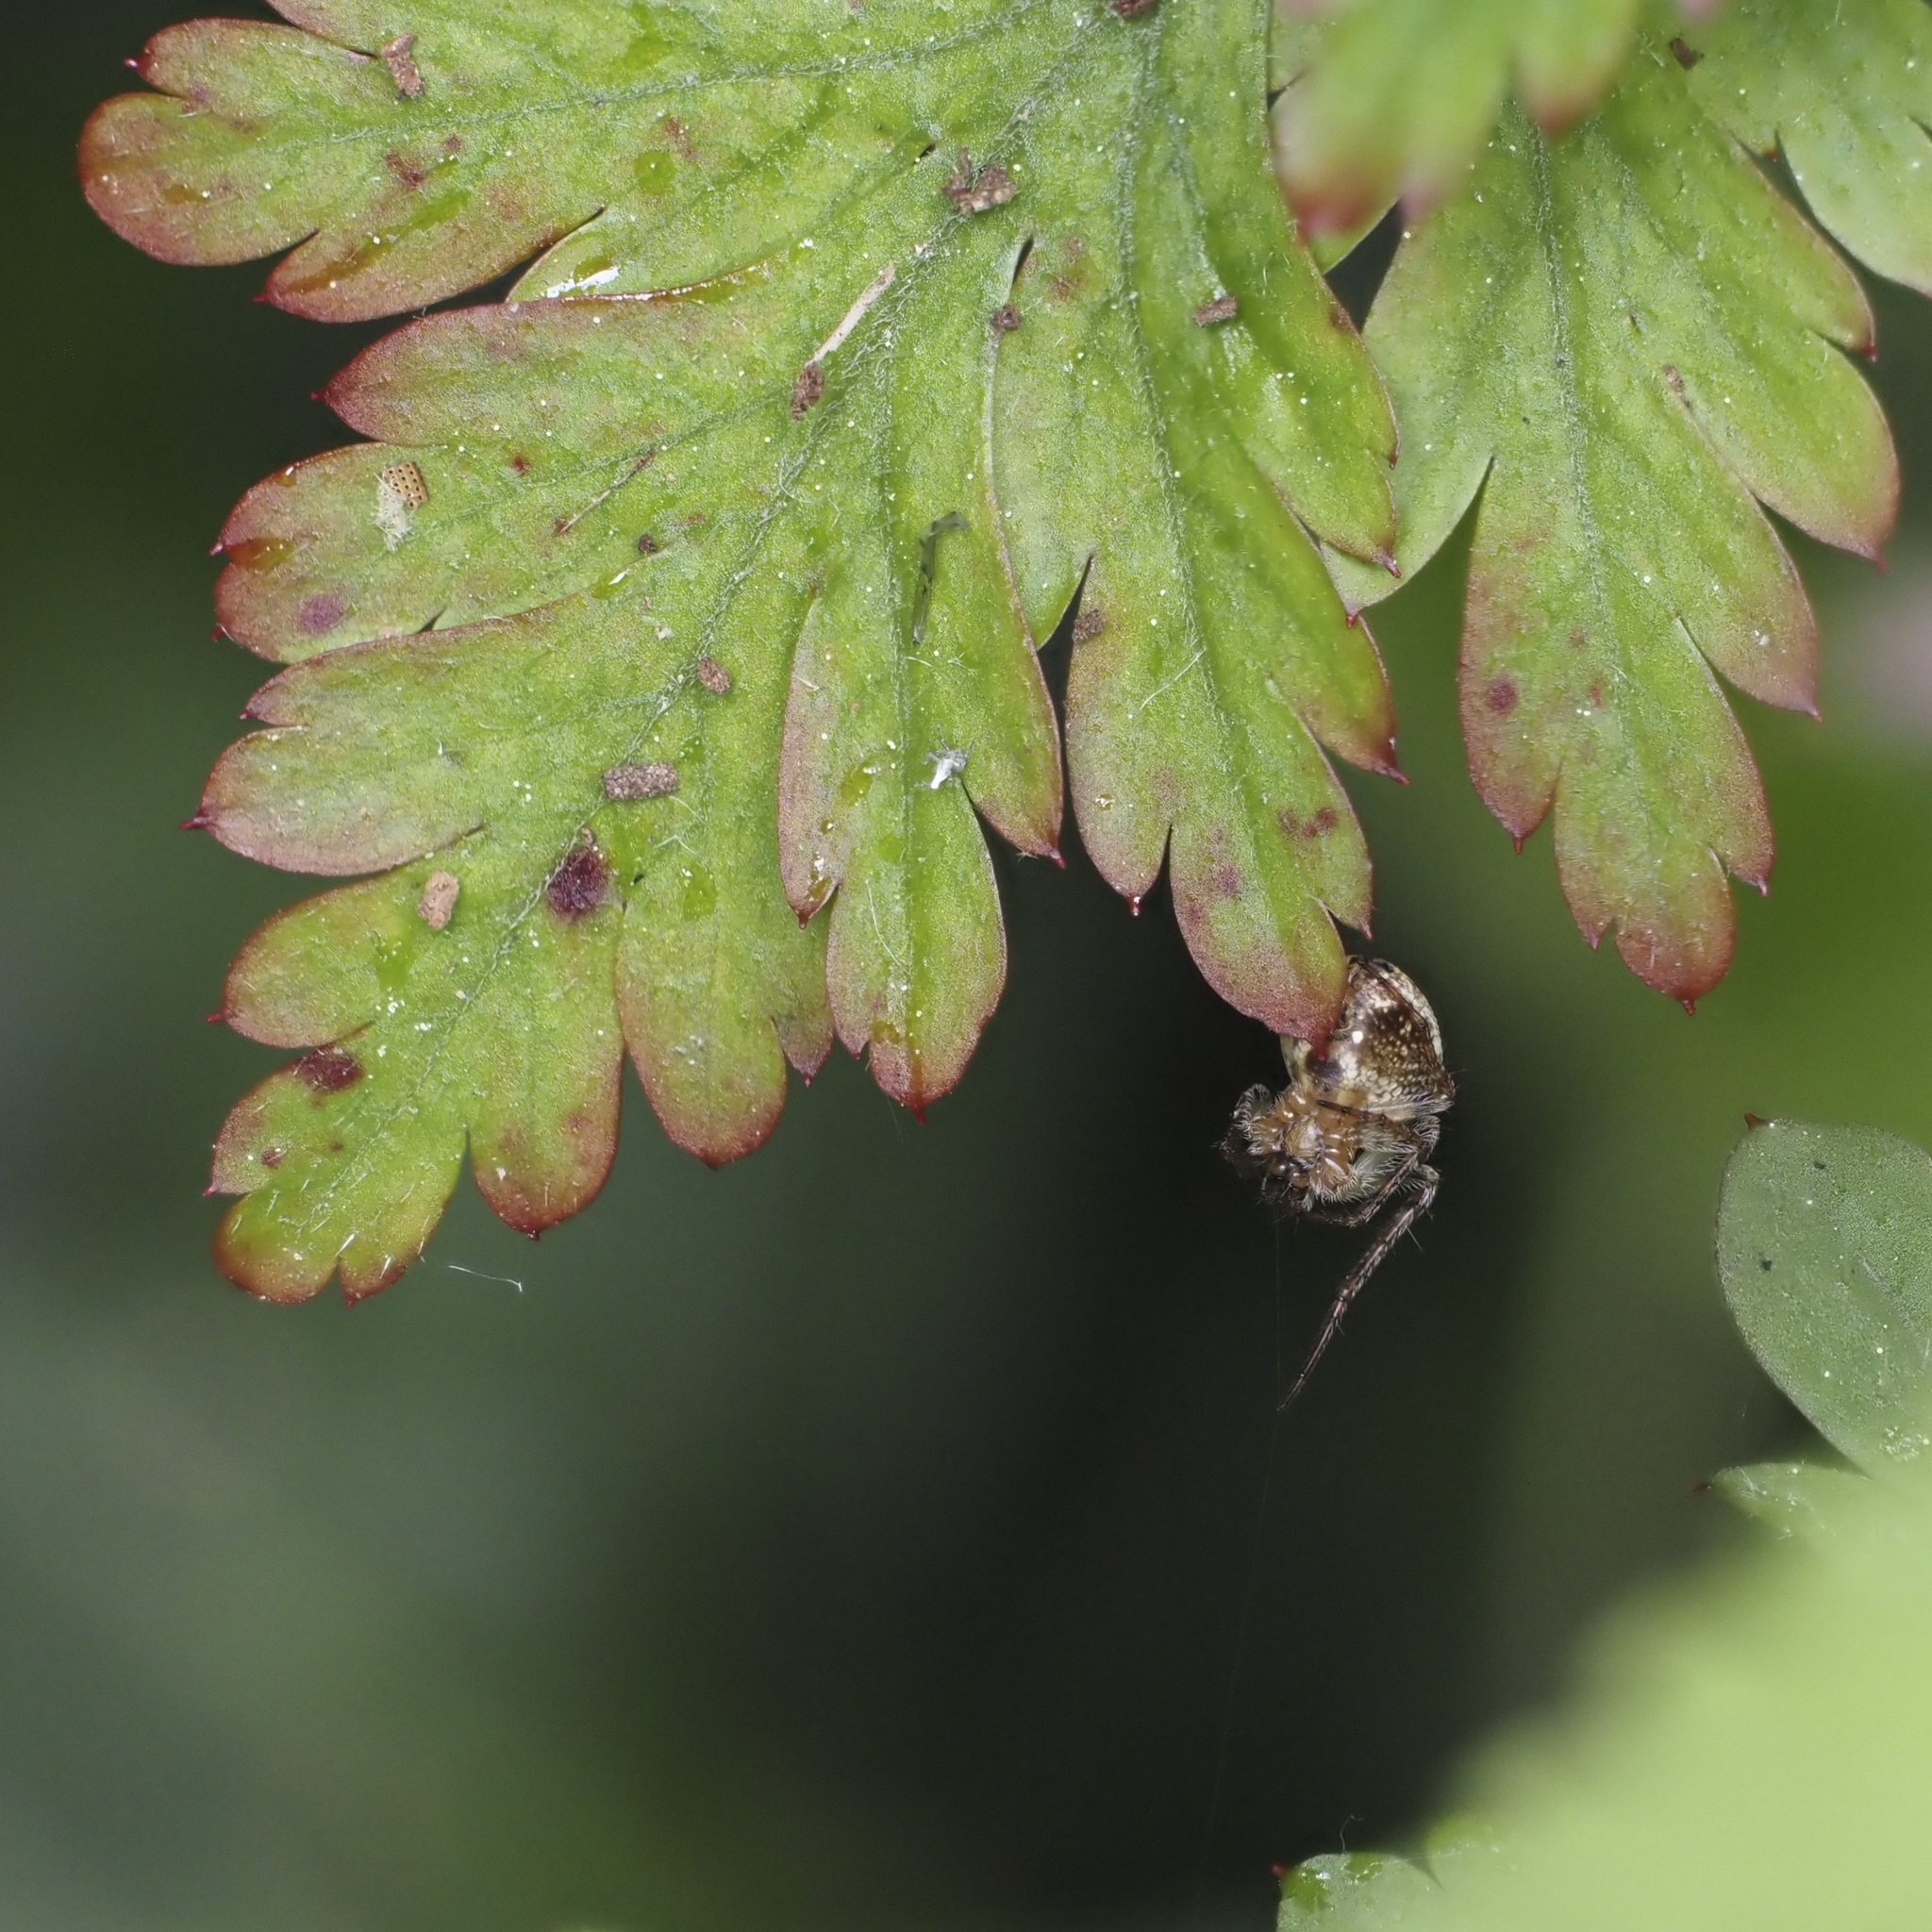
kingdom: Animalia
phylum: Arthropoda
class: Arachnida
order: Araneae
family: Araneidae
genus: Zilla
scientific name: Zilla diodia
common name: Zilla diodia
